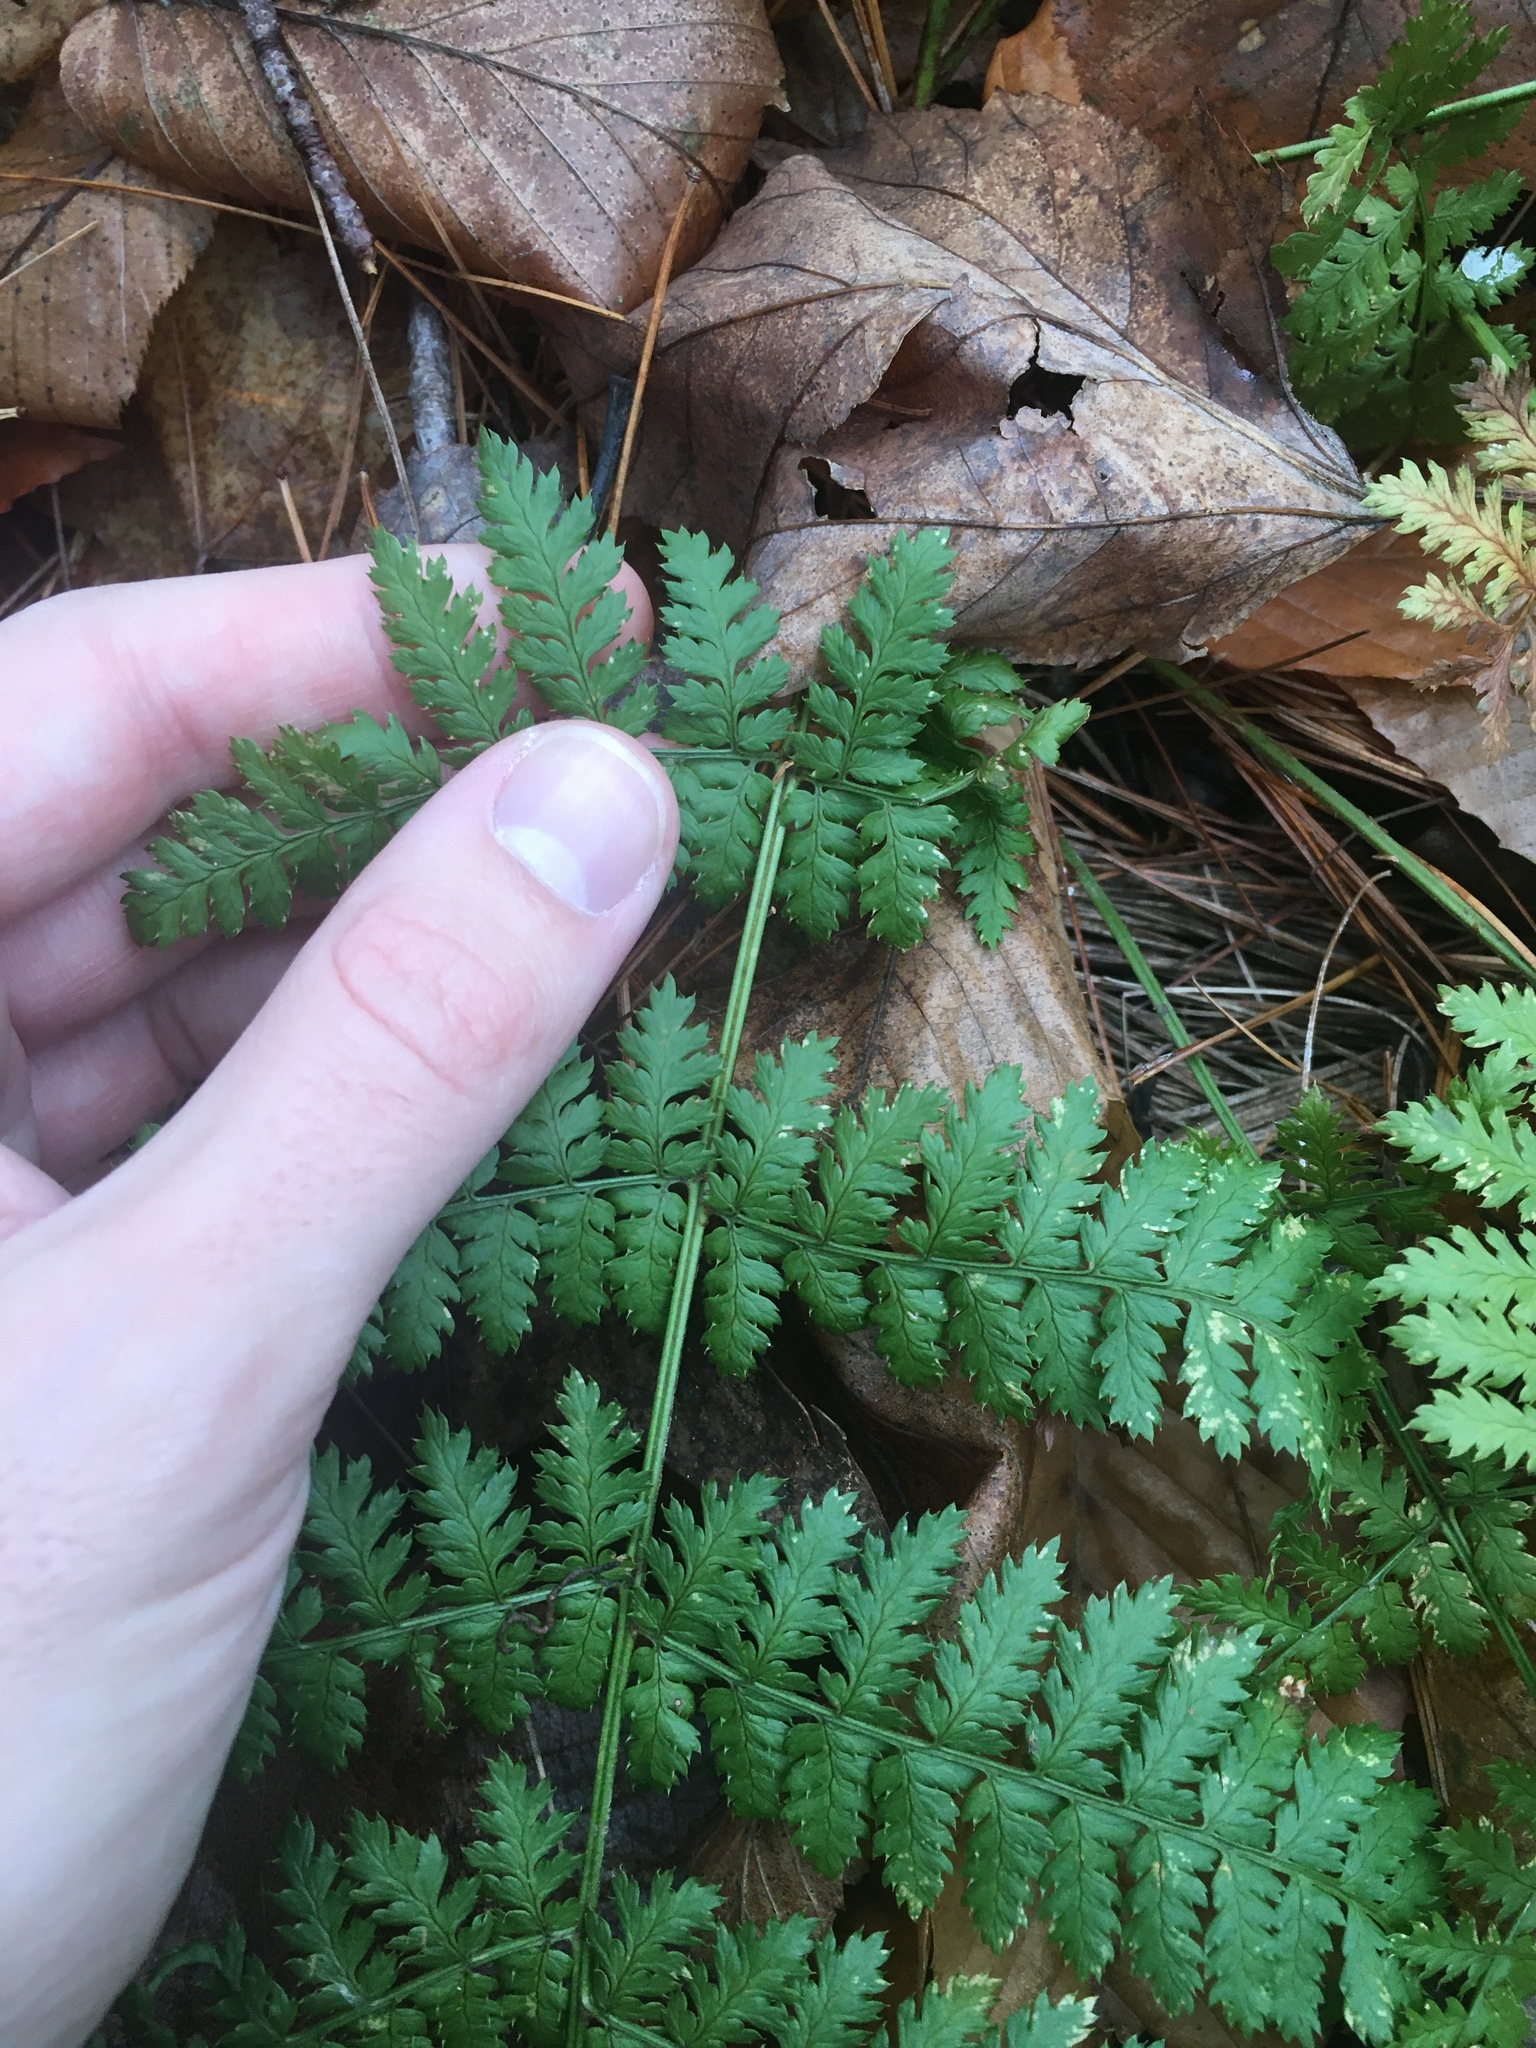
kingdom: Plantae
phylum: Tracheophyta
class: Polypodiopsida
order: Polypodiales
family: Dryopteridaceae
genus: Dryopteris
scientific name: Dryopteris intermedia
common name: Evergreen wood fern
